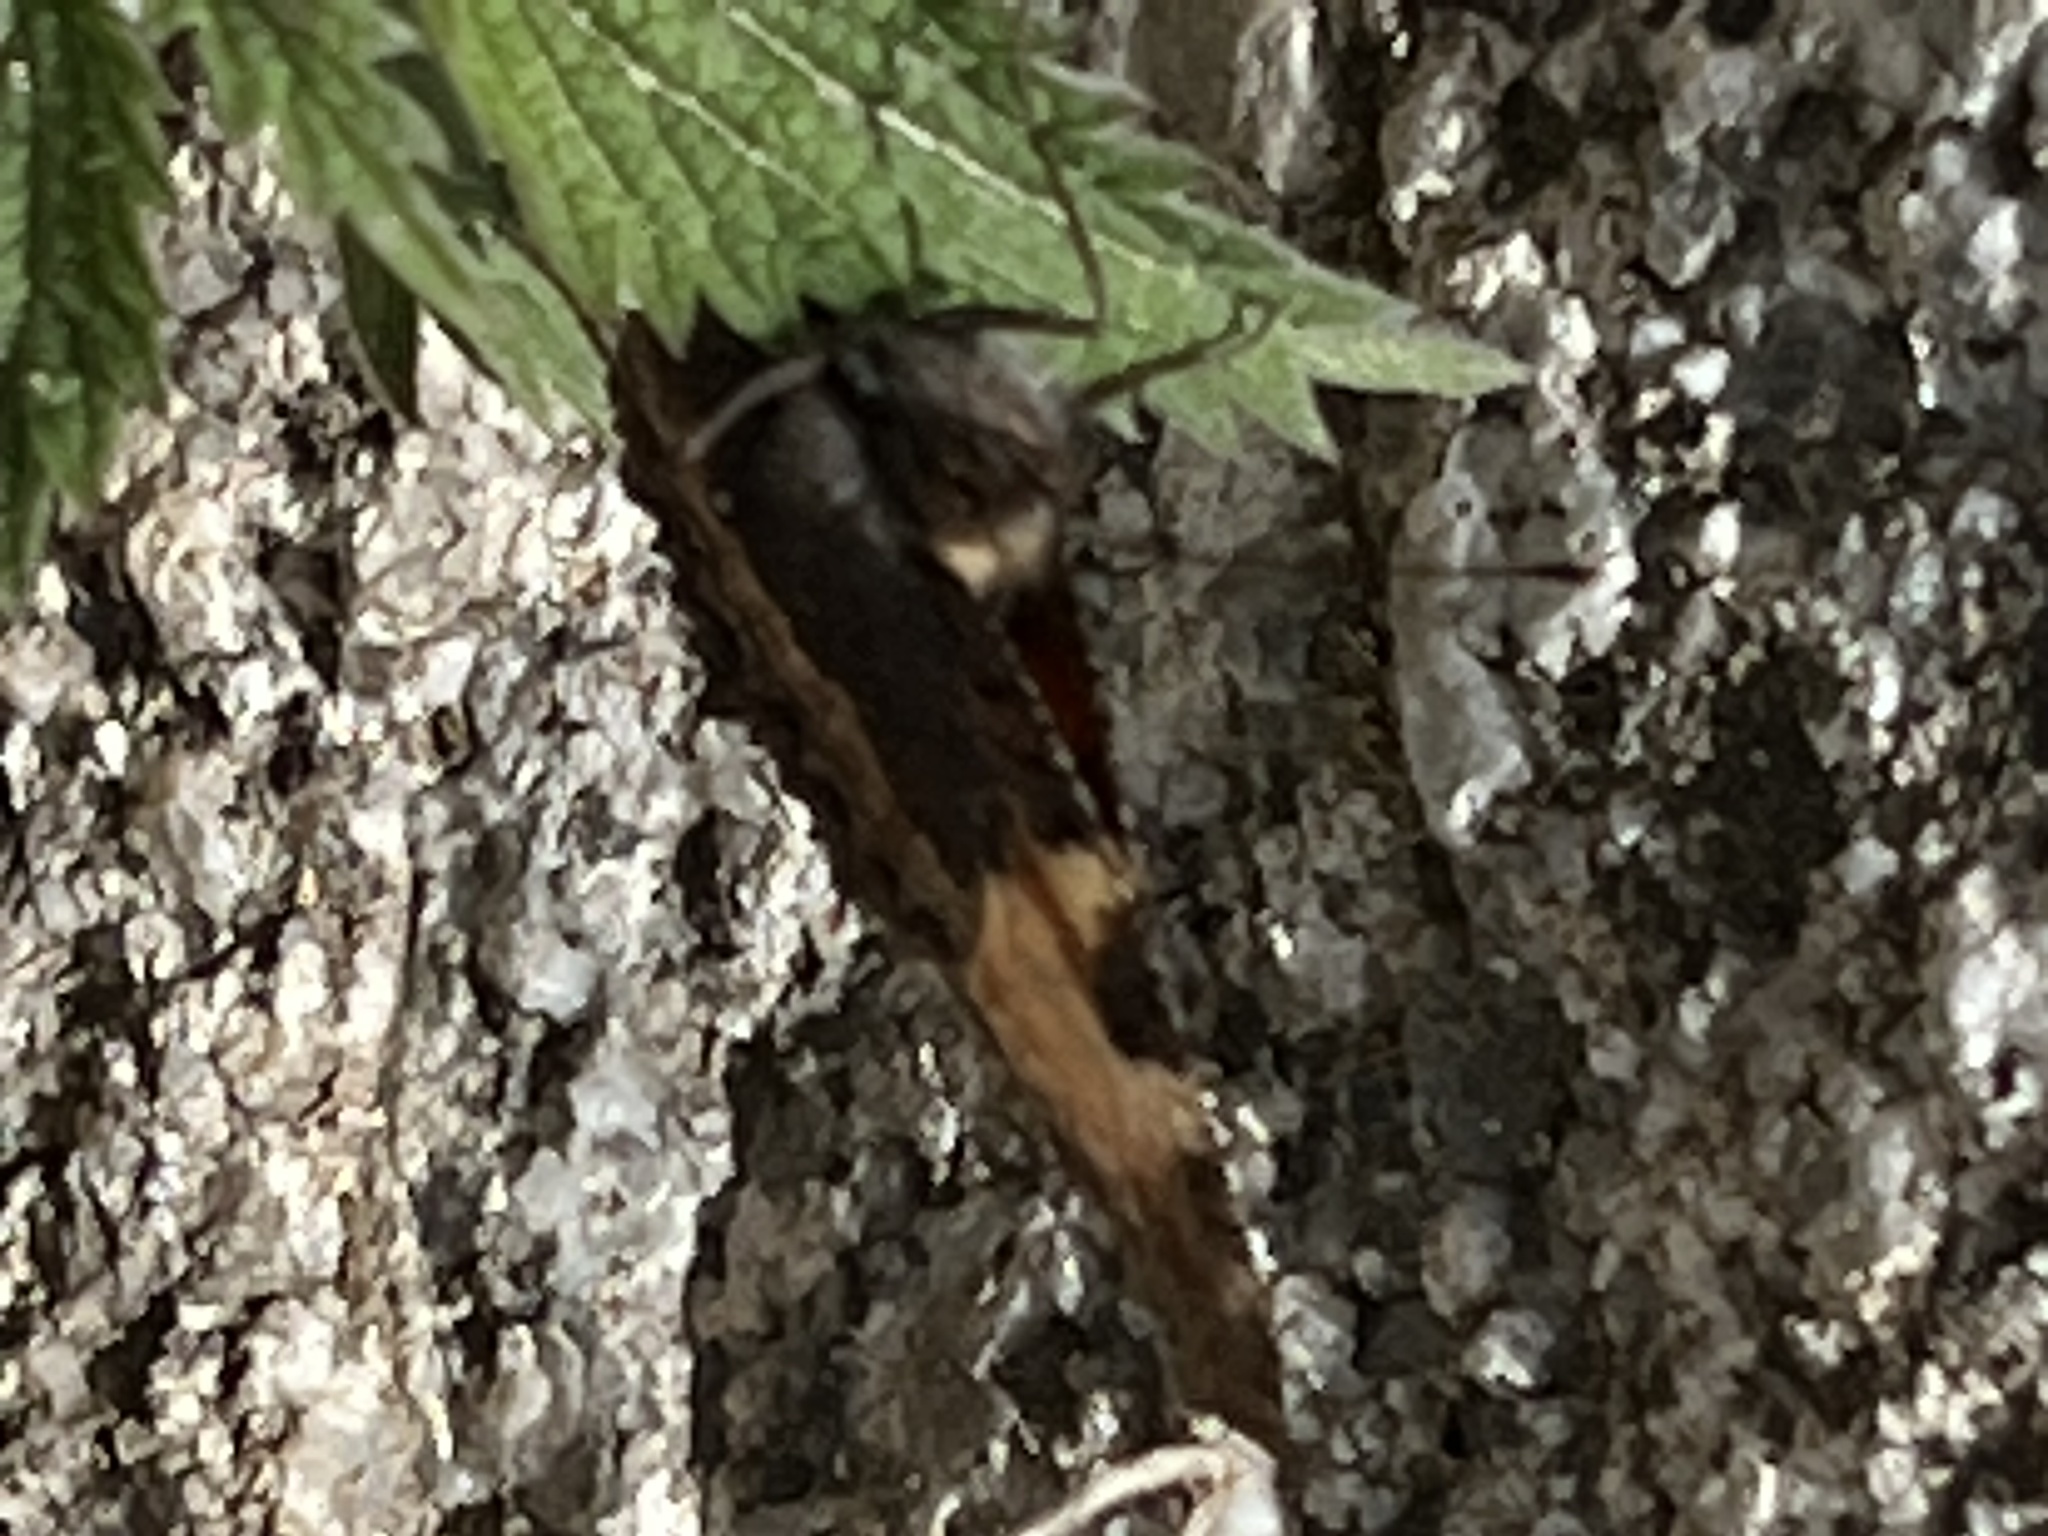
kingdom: Animalia
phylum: Arthropoda
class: Insecta
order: Lepidoptera
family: Nymphalidae
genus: Aglais
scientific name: Aglais urticae
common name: Small tortoiseshell
